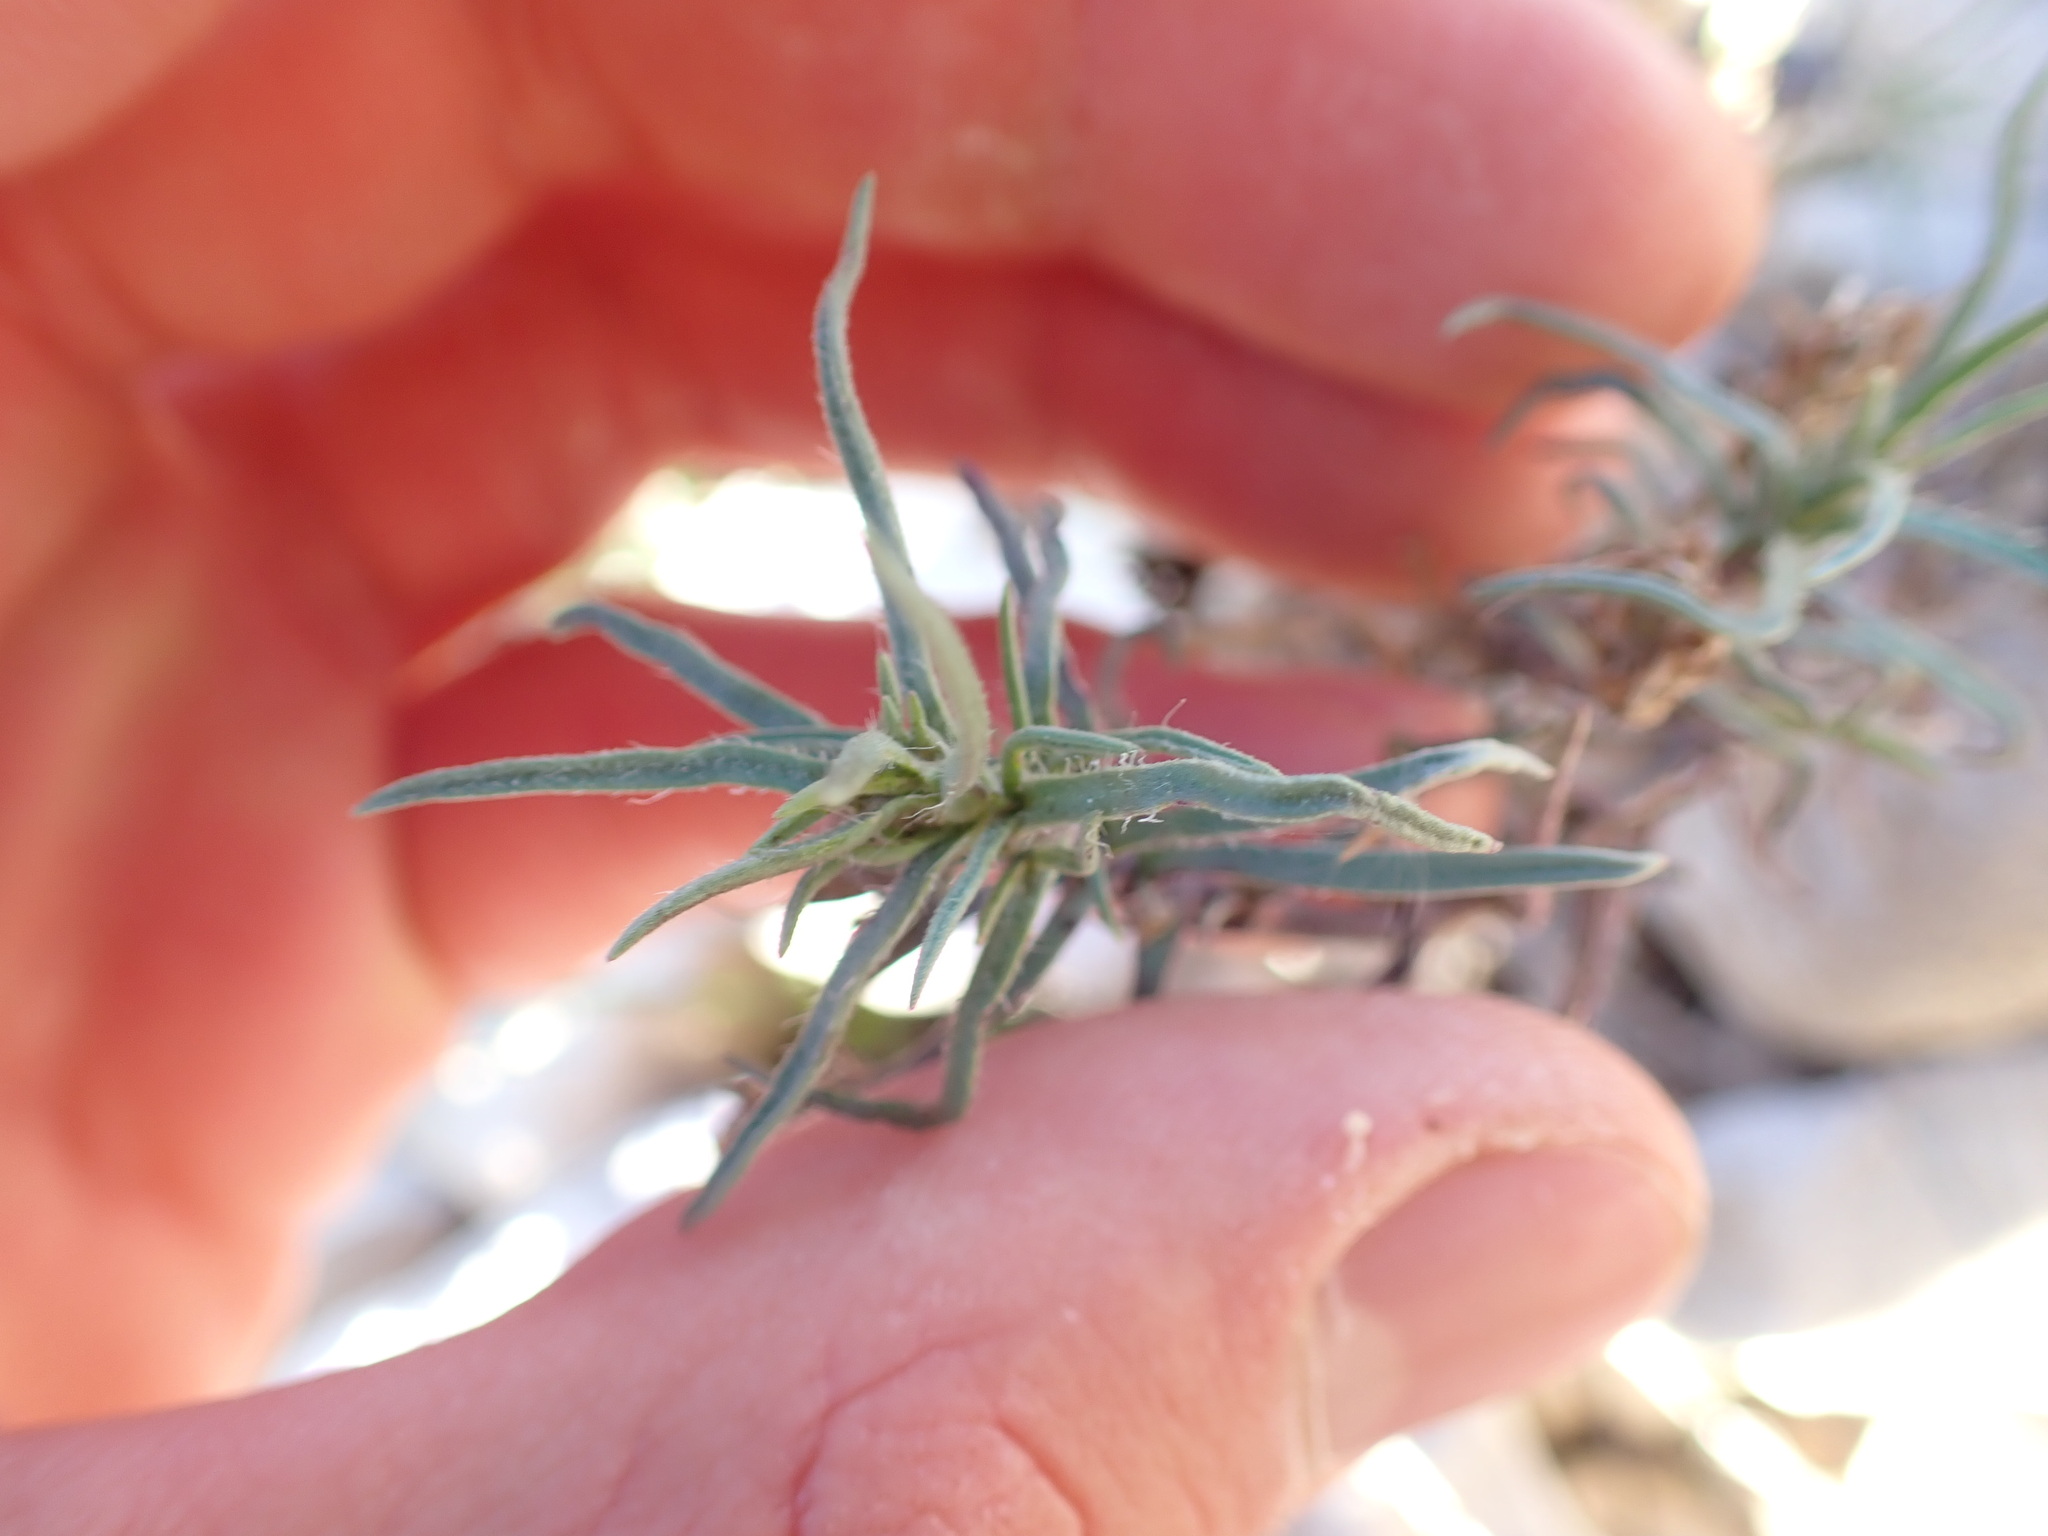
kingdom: Plantae
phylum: Tracheophyta
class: Magnoliopsida
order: Lamiales
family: Plantaginaceae
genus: Plantago
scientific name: Plantago sempervirens
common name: Shrubby plantain
